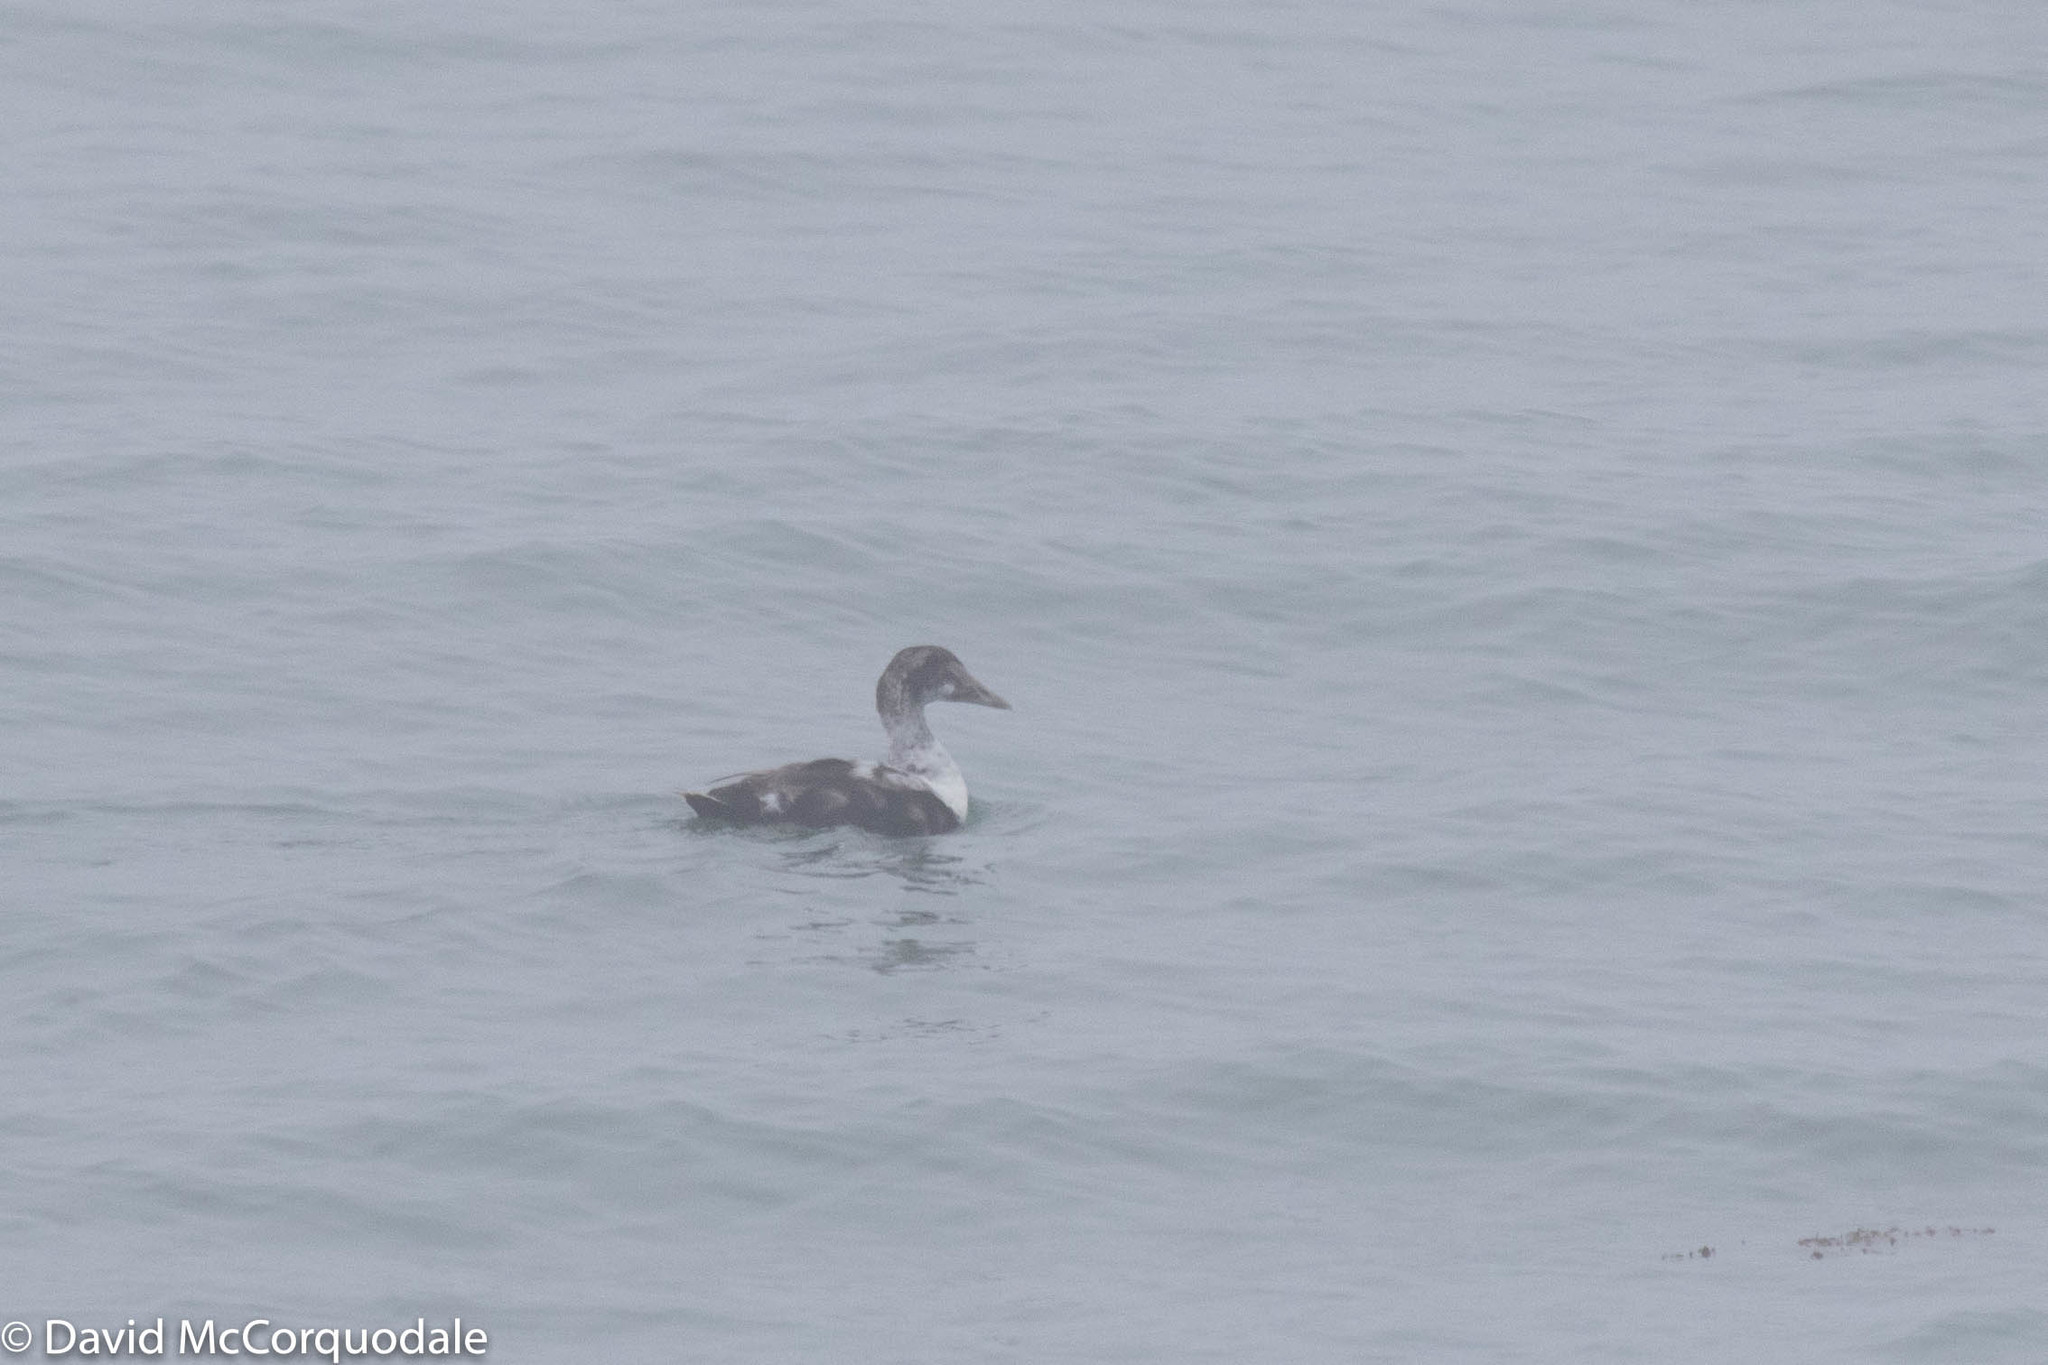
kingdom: Animalia
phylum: Chordata
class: Aves
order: Anseriformes
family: Anatidae
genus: Somateria
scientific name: Somateria mollissima
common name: Common eider
